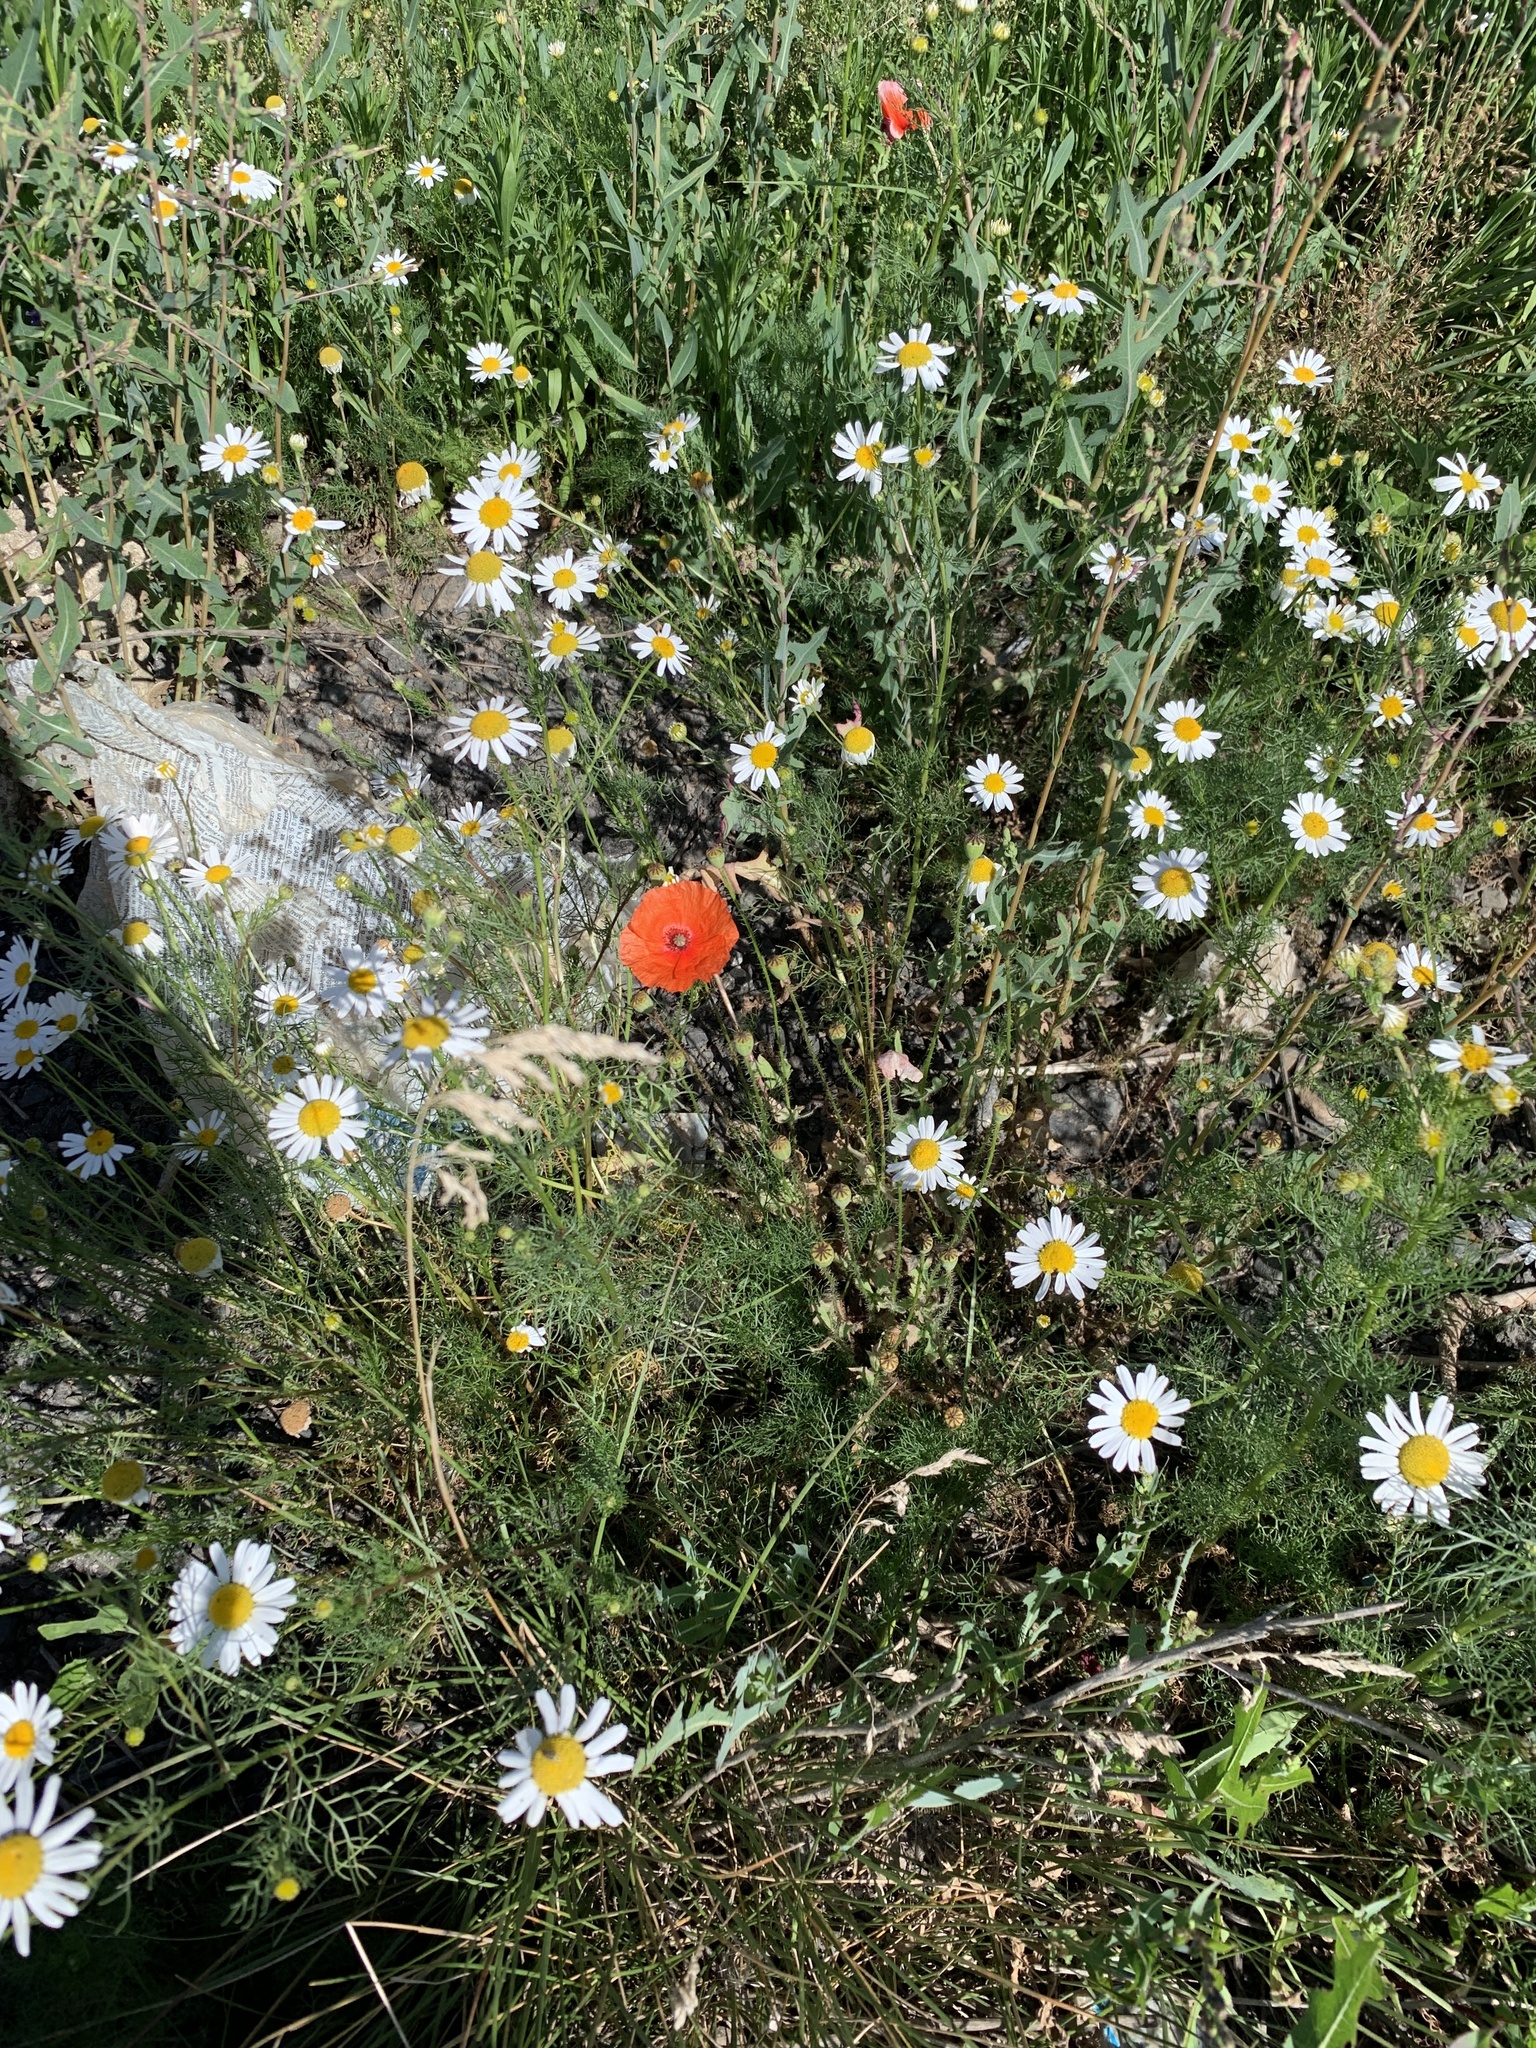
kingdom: Plantae
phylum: Tracheophyta
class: Magnoliopsida
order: Ranunculales
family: Papaveraceae
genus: Papaver
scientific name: Papaver rhoeas
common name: Corn poppy
